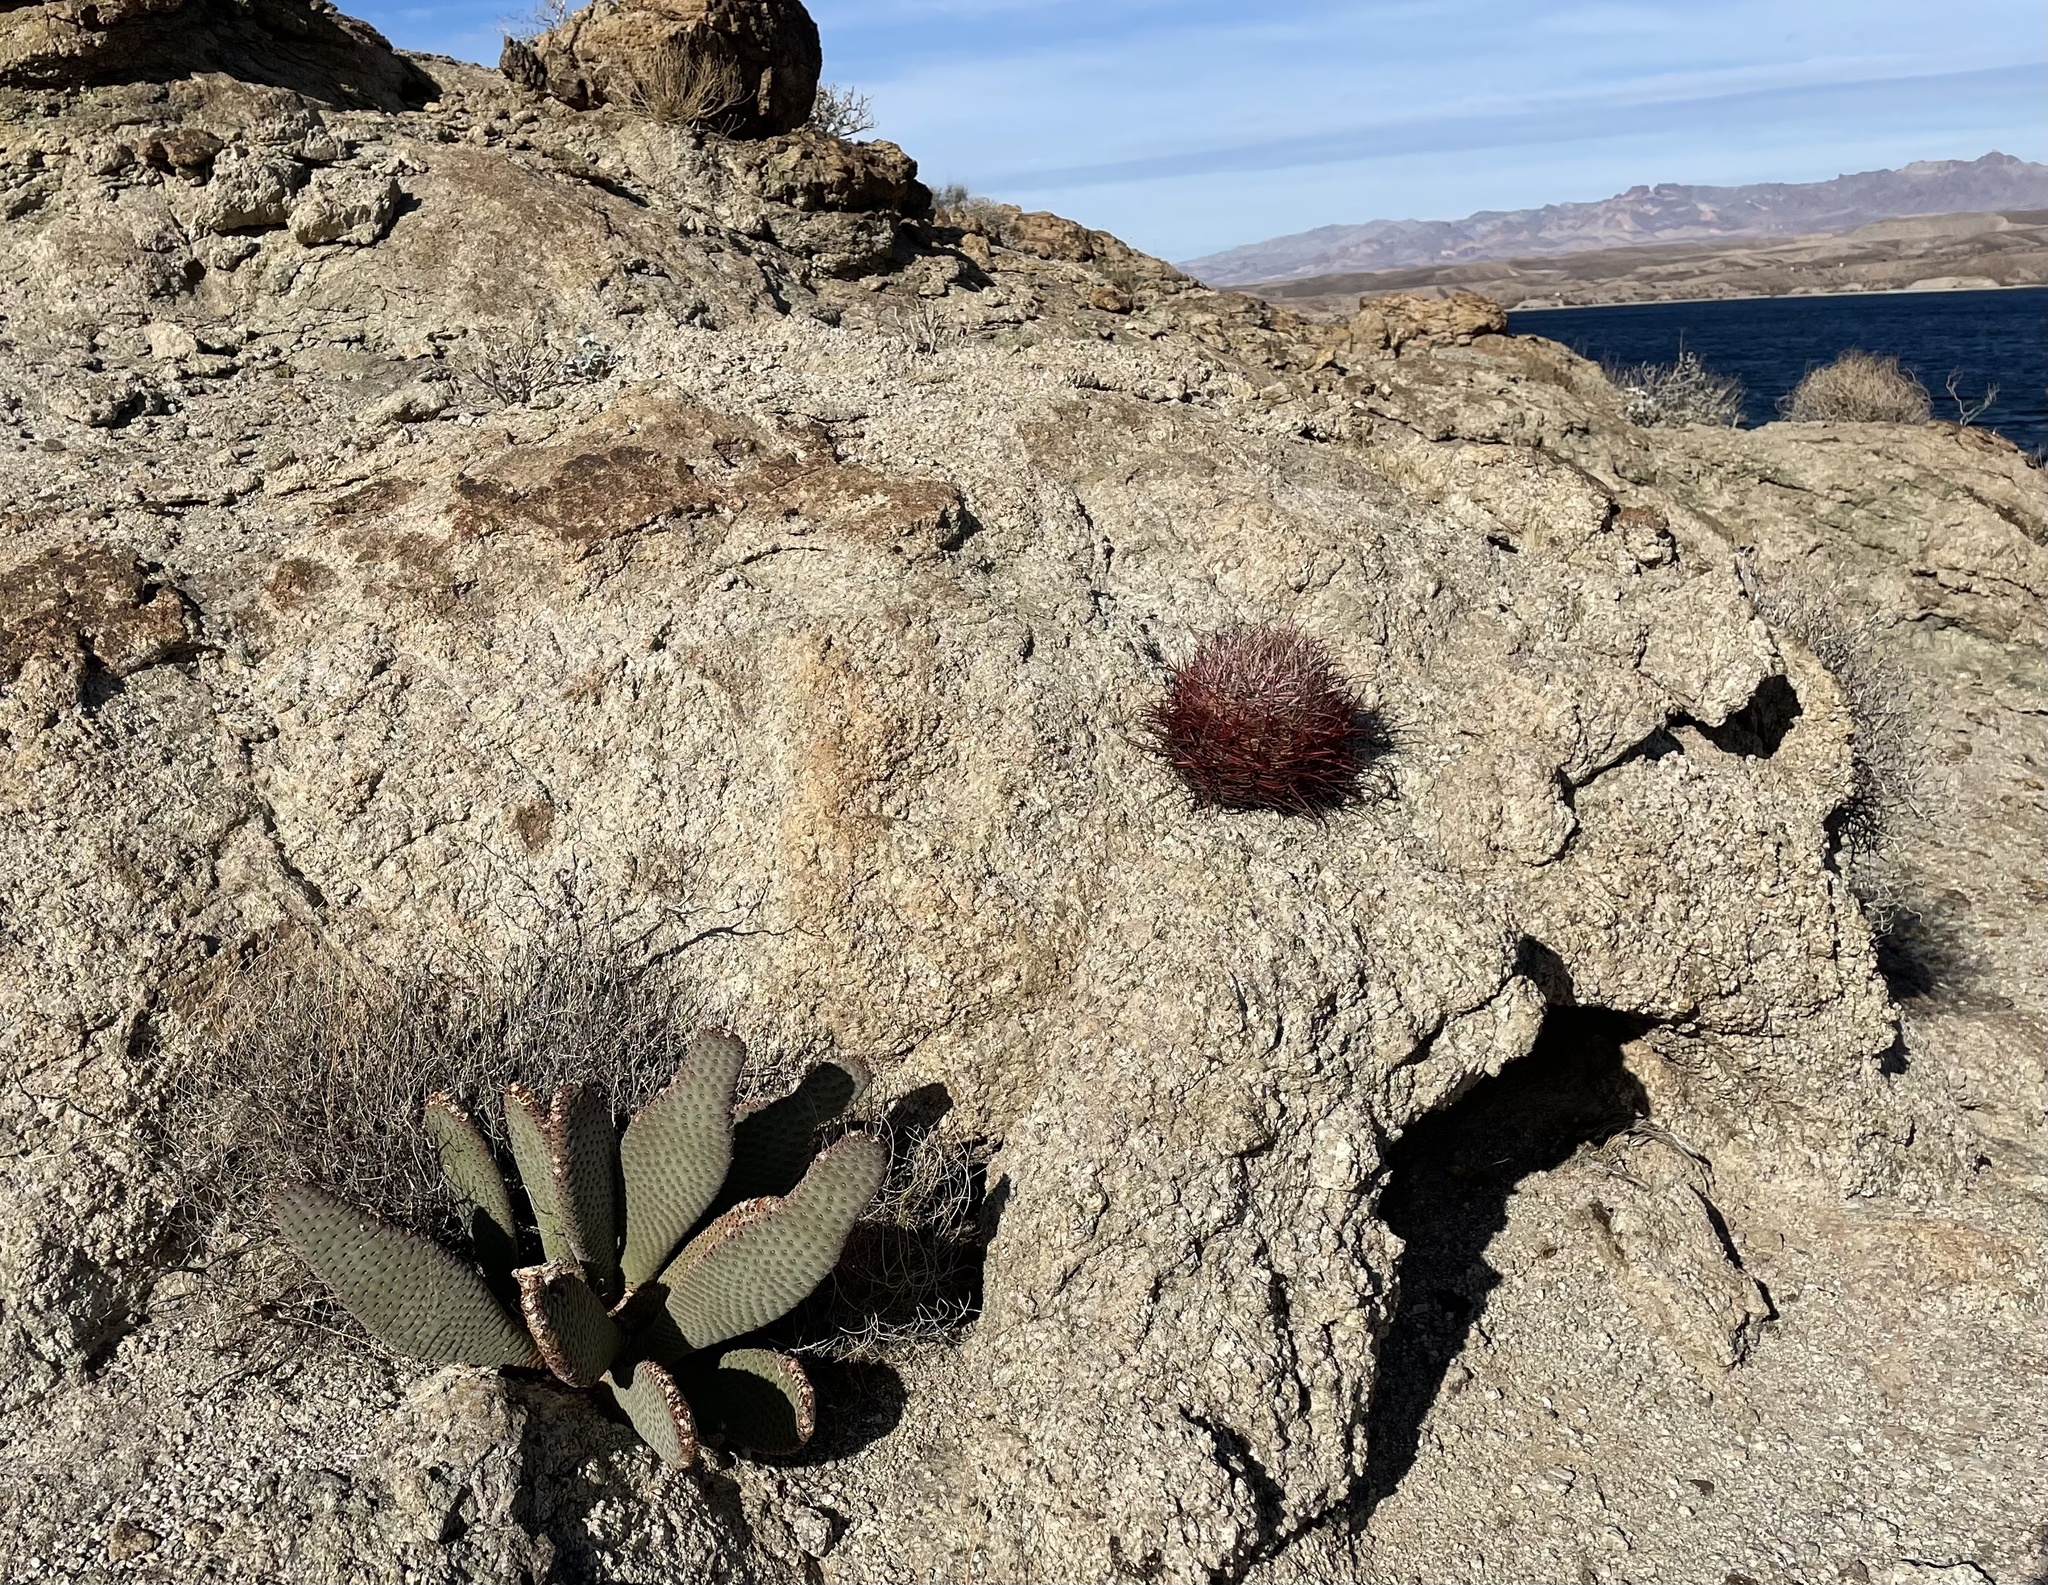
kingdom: Plantae
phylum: Tracheophyta
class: Magnoliopsida
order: Caryophyllales
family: Cactaceae
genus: Opuntia
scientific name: Opuntia basilaris
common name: Beavertail prickly-pear
